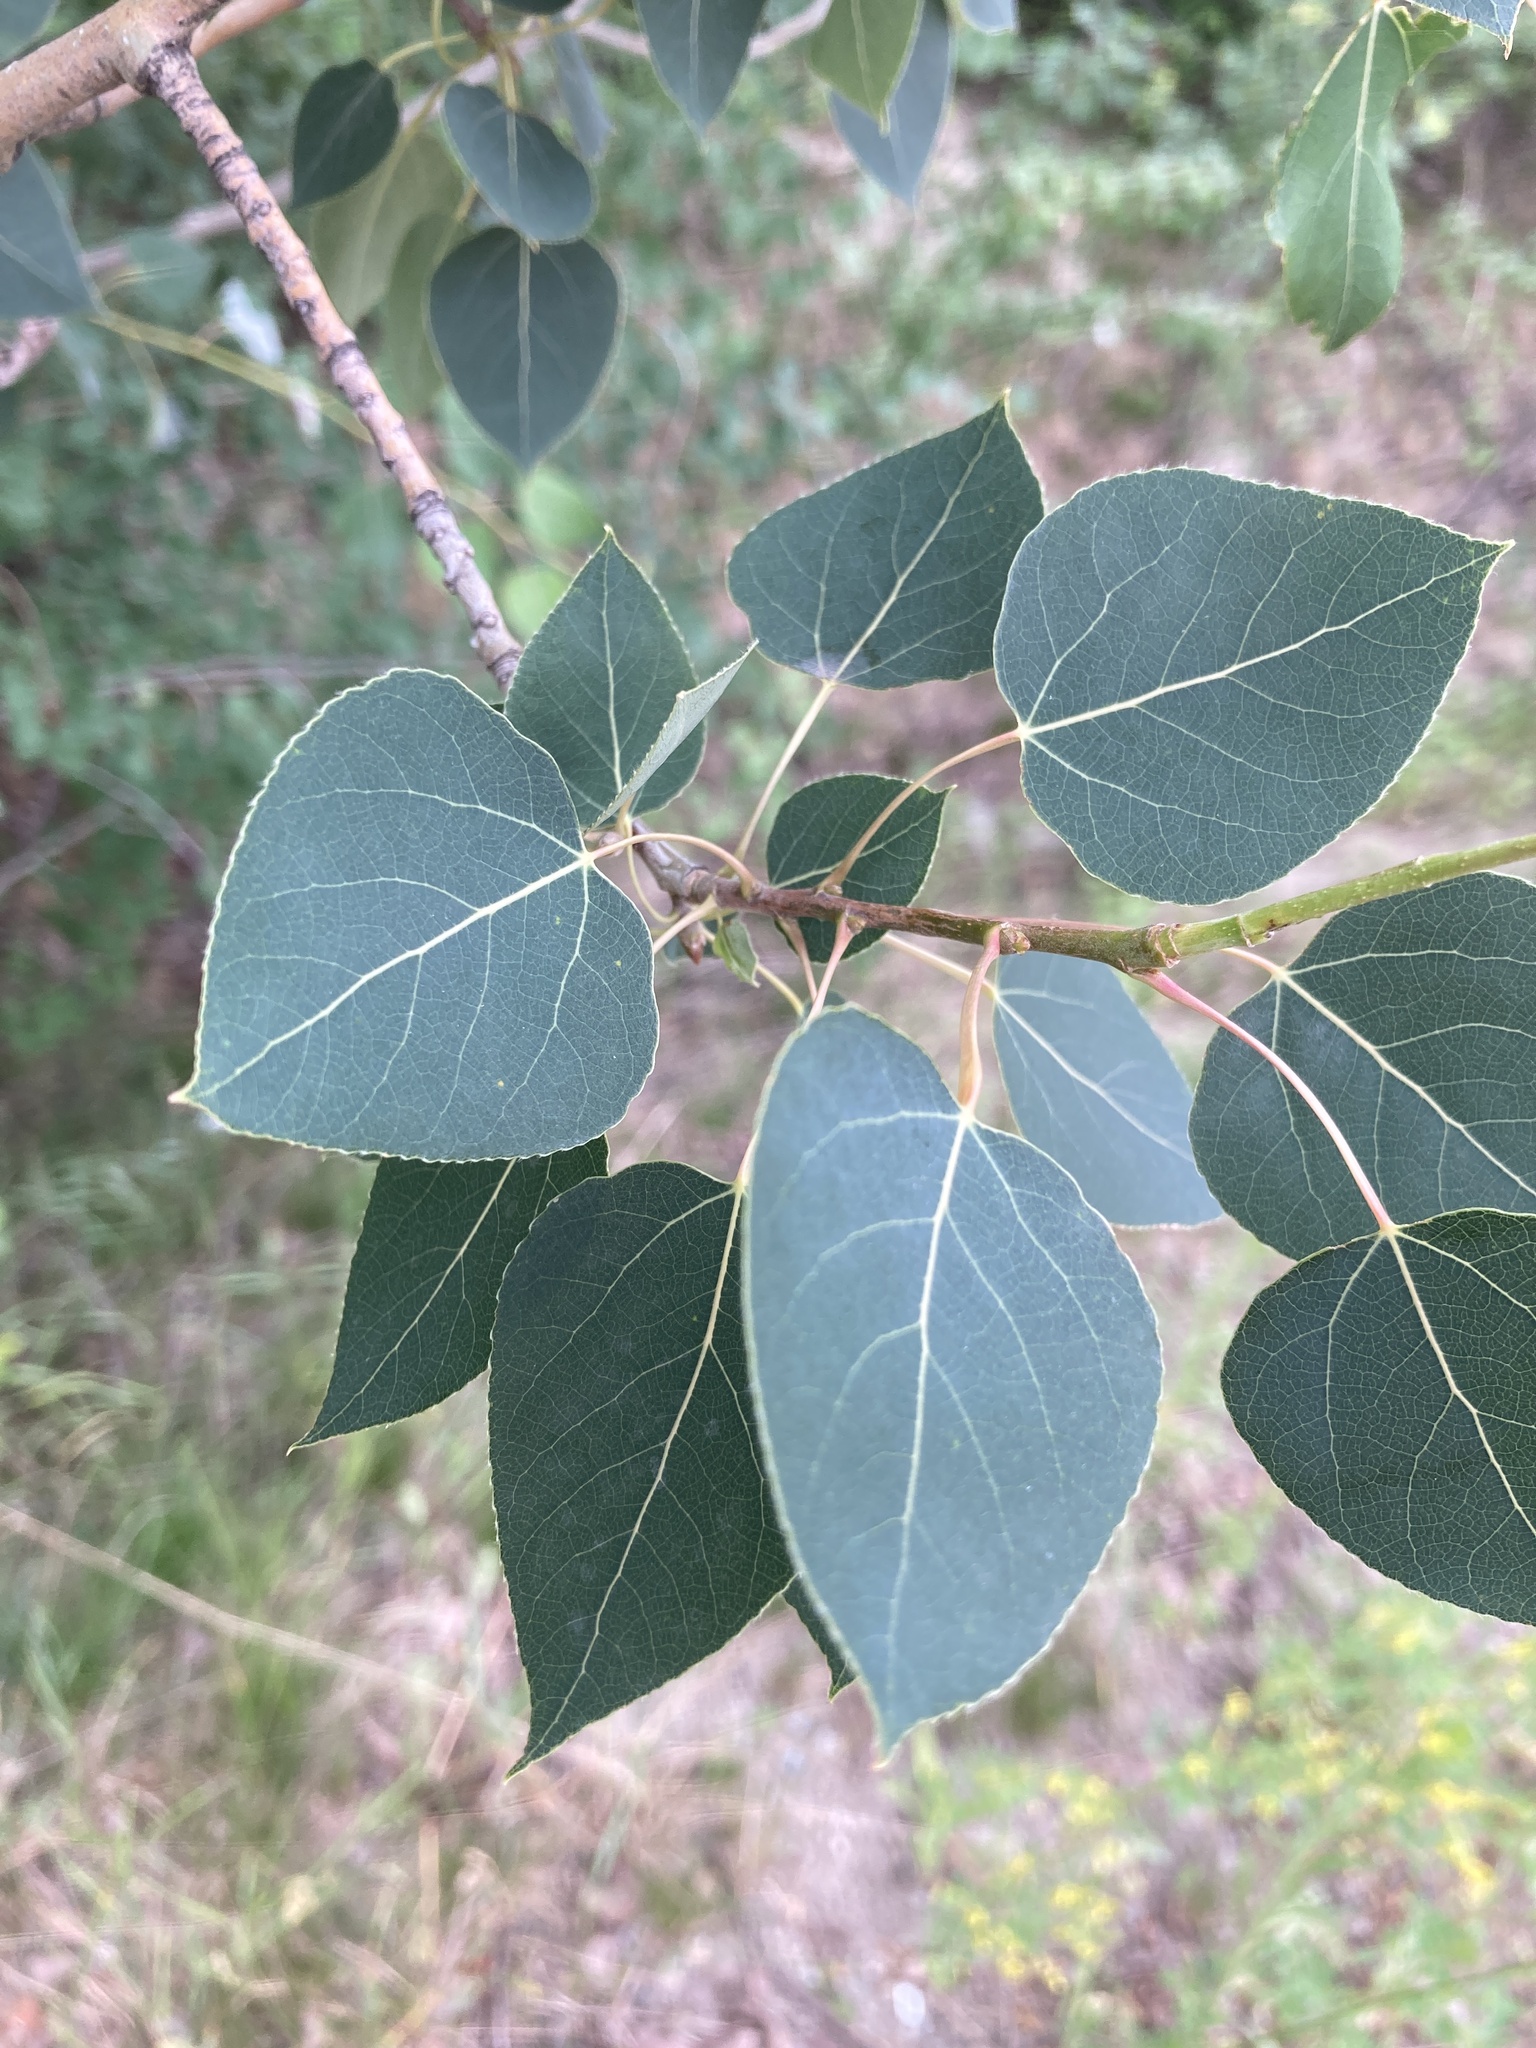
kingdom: Plantae
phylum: Tracheophyta
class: Magnoliopsida
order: Malpighiales
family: Salicaceae
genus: Populus
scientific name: Populus tremuloides
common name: Quaking aspen
